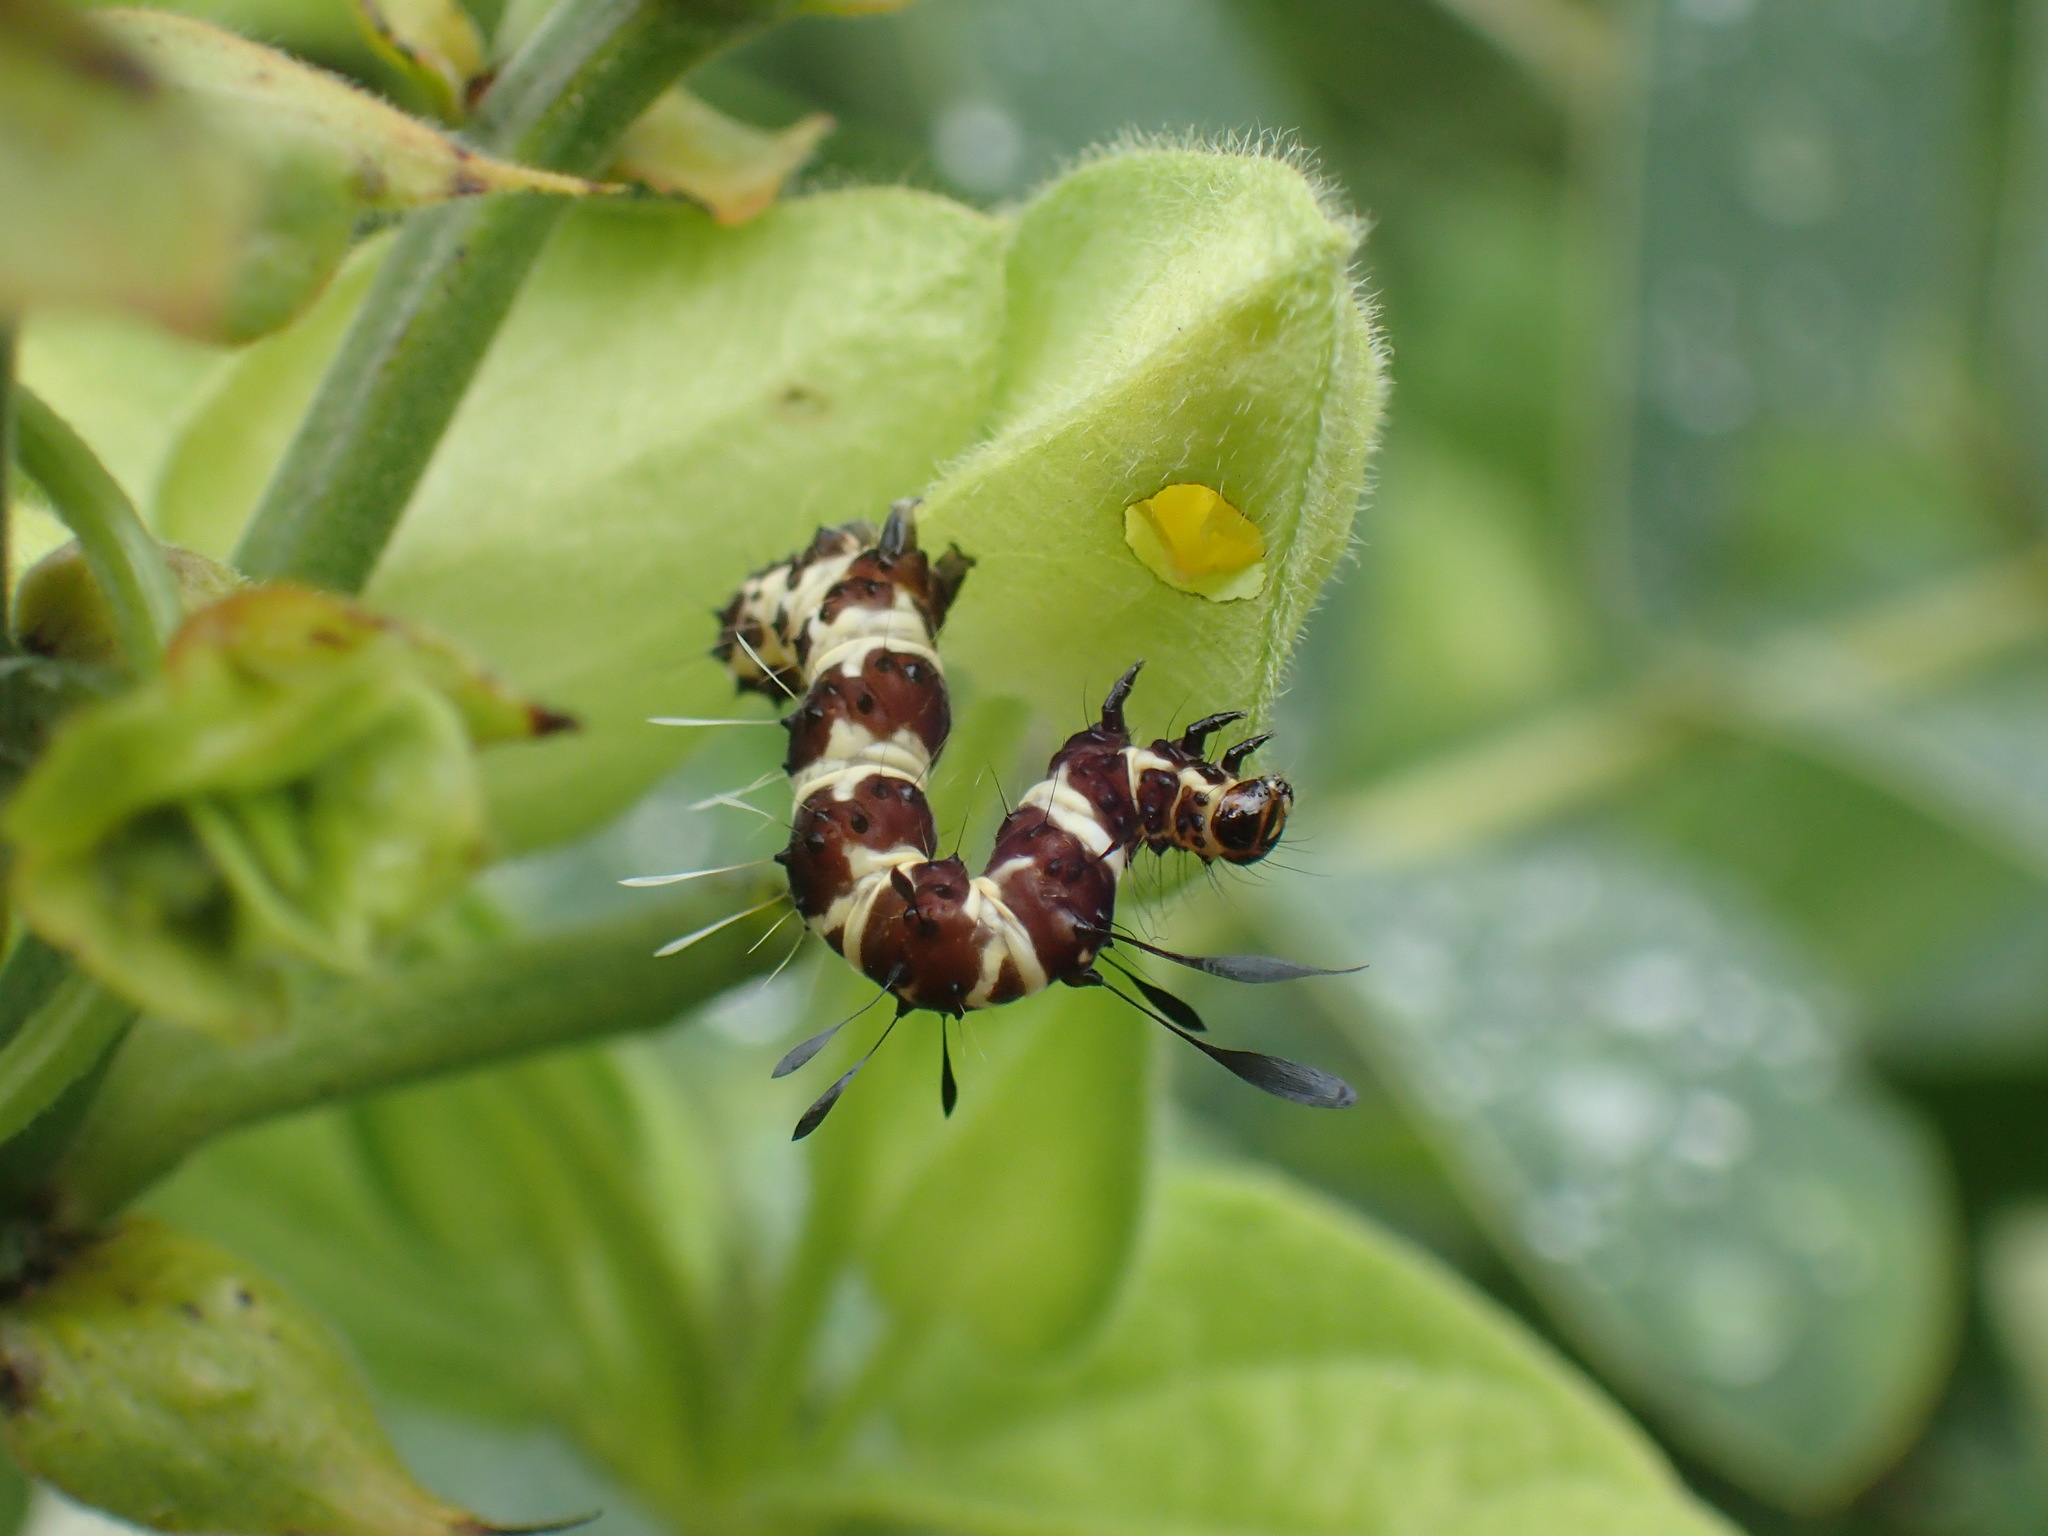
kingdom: Animalia
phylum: Arthropoda
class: Insecta
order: Lepidoptera
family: Erebidae
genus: Rhanidophora
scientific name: Rhanidophora cinctigutta
